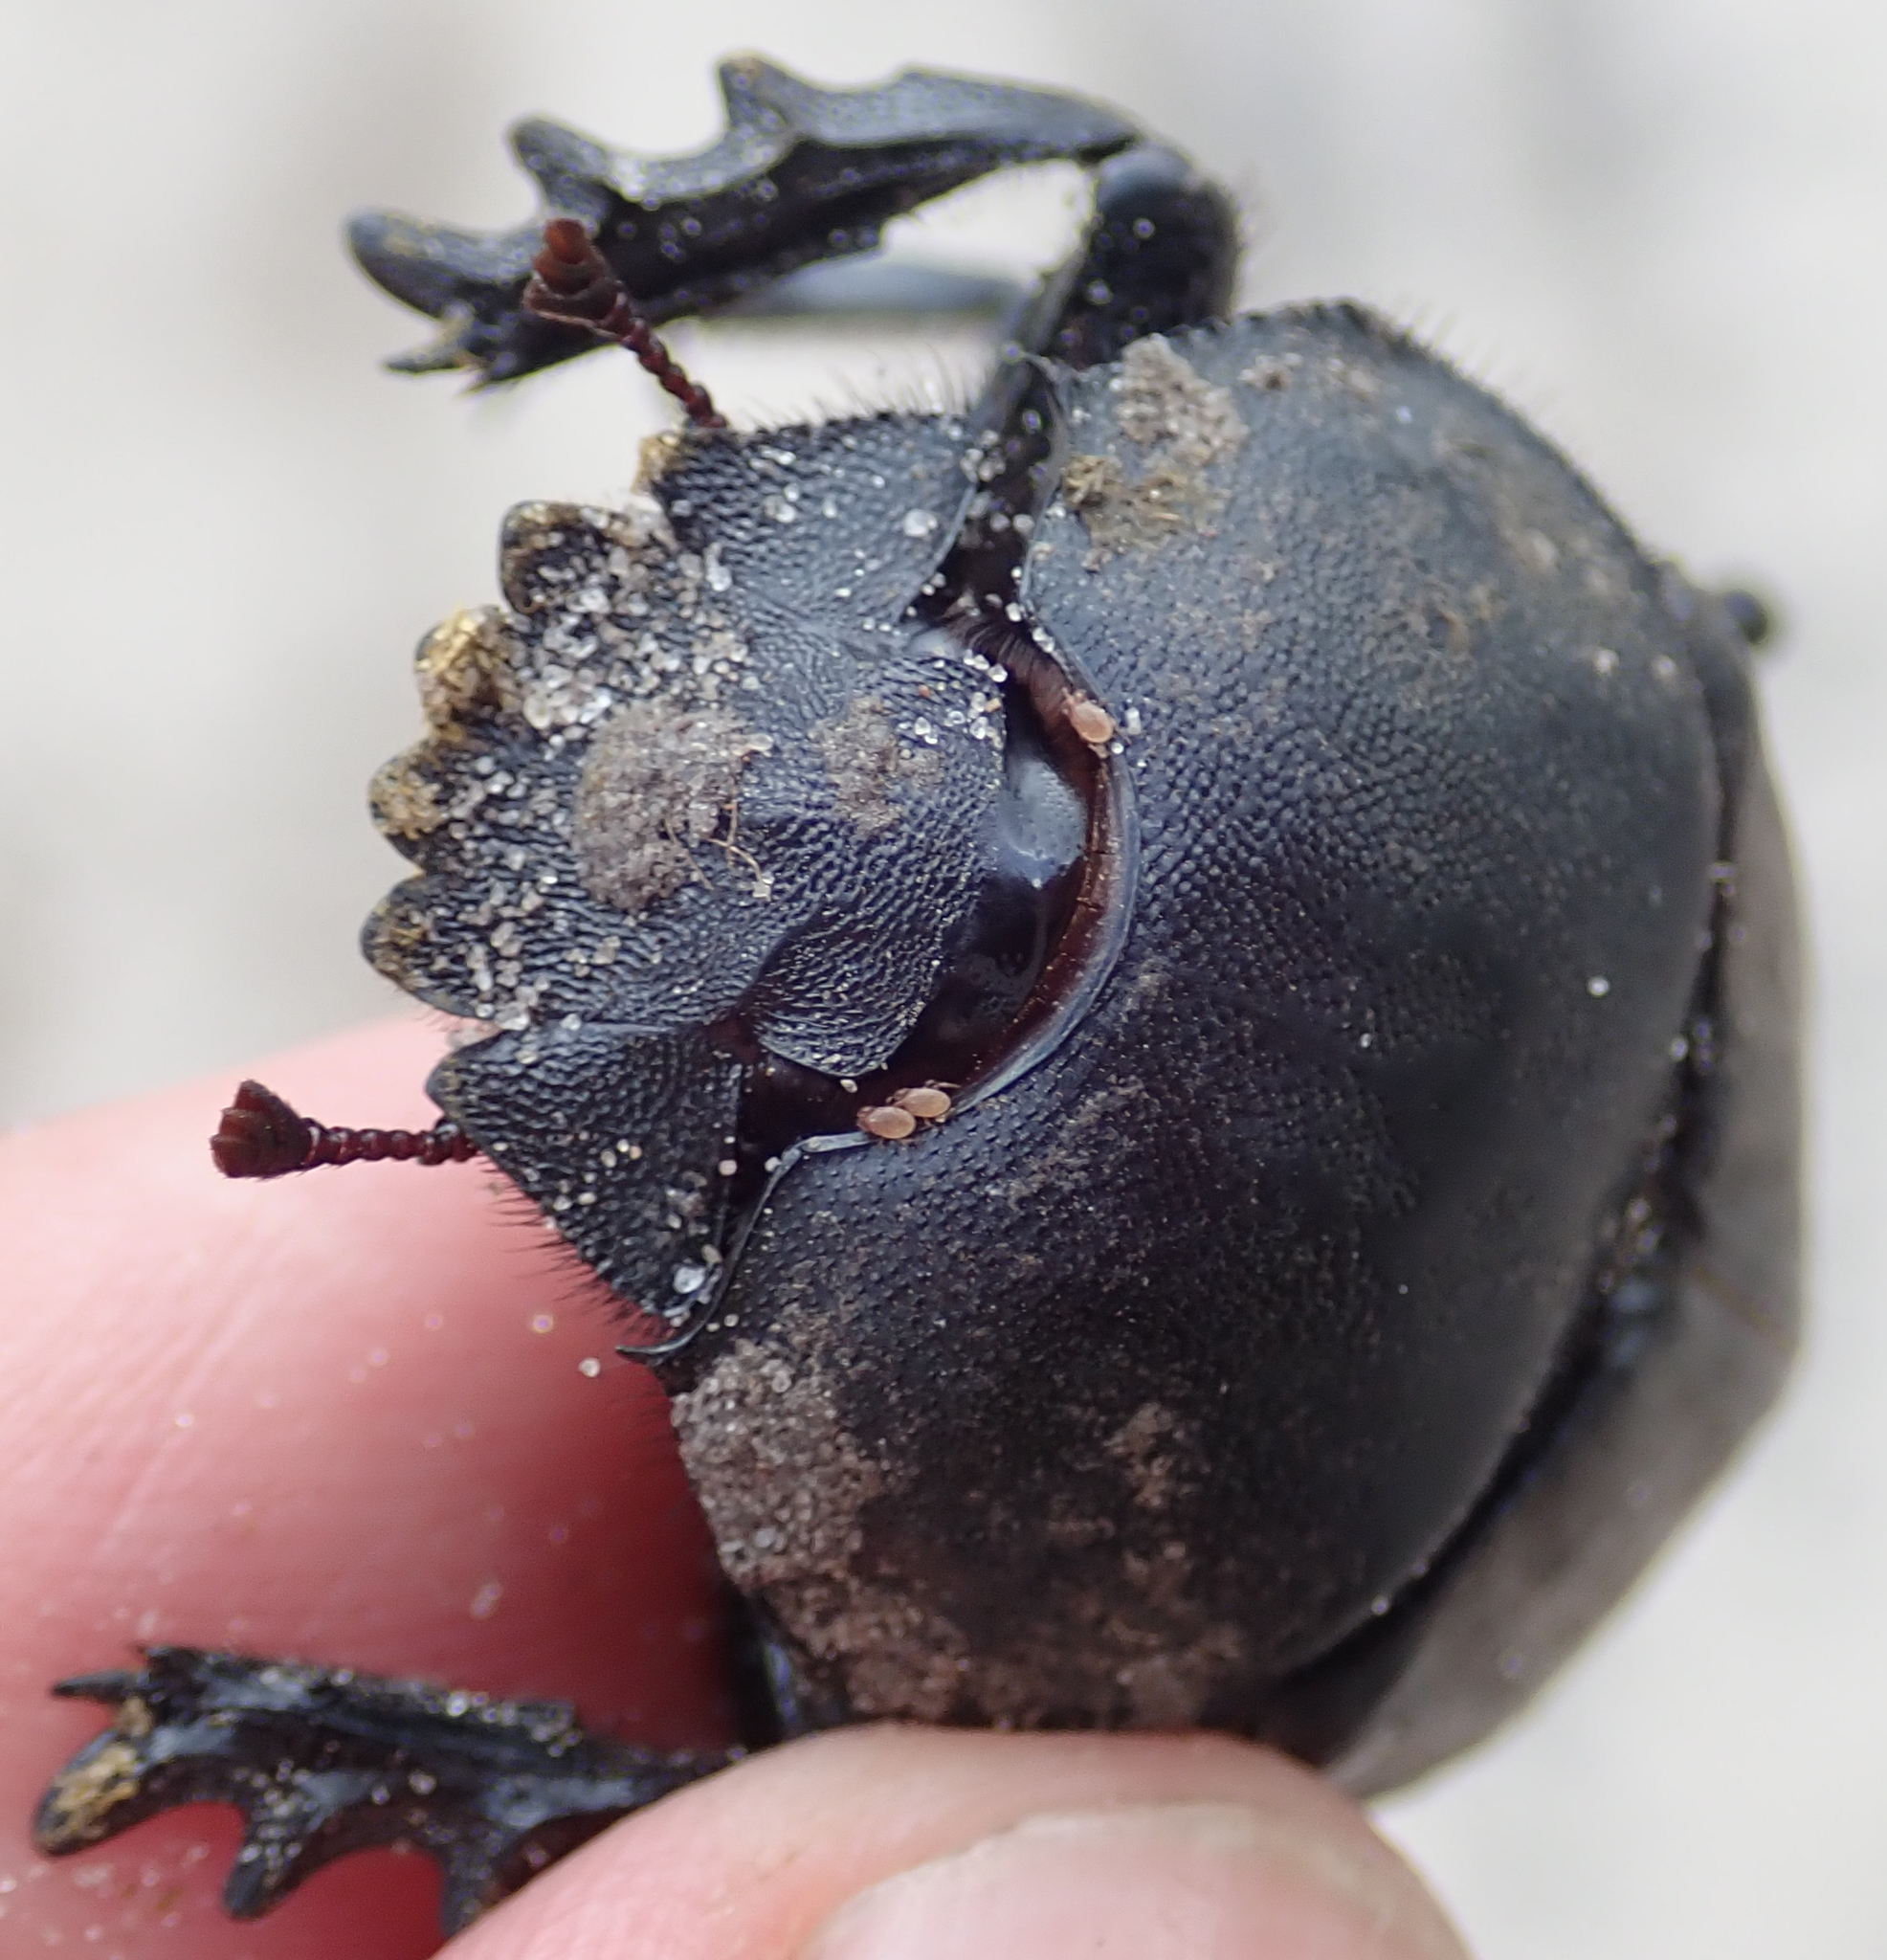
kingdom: Animalia
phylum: Arthropoda
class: Insecta
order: Coleoptera
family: Scarabaeidae
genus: Kheper
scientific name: Kheper lamarcki
